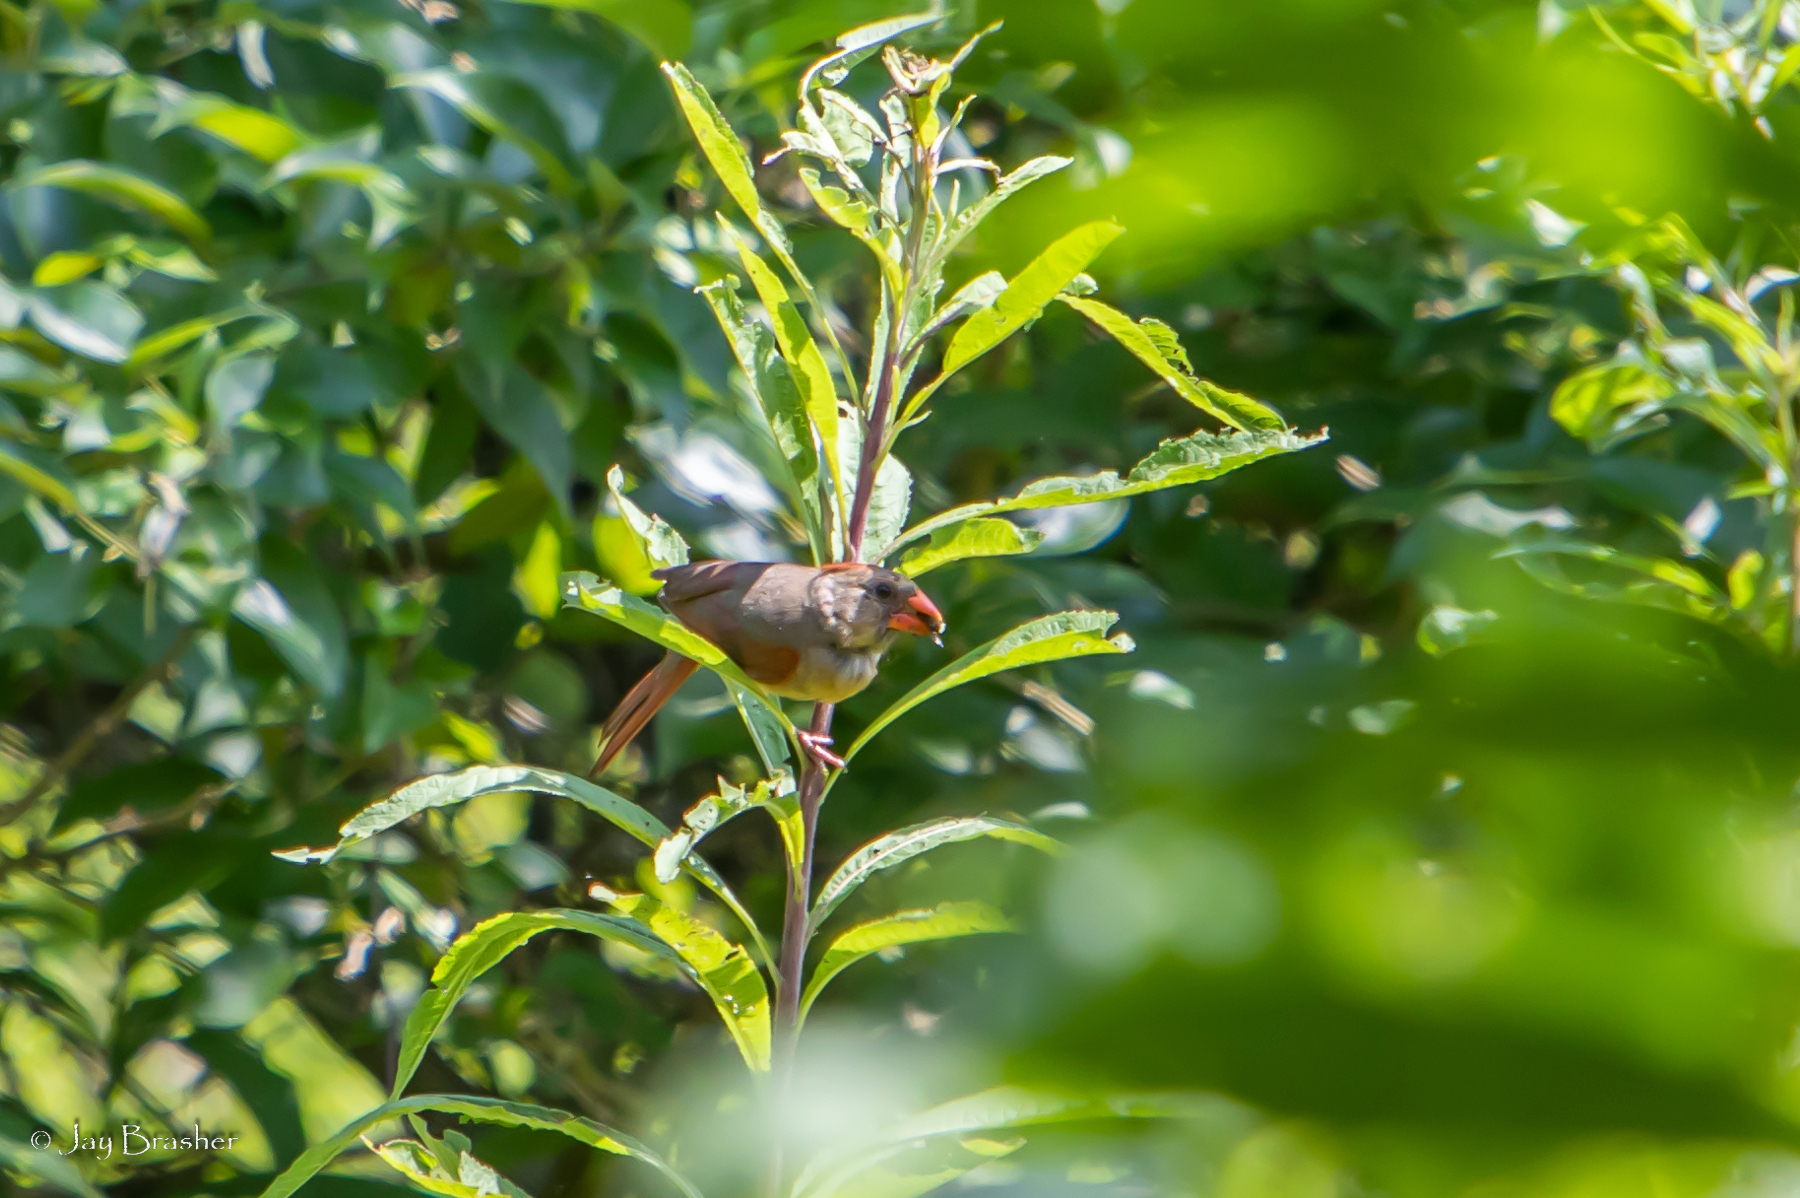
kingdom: Animalia
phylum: Chordata
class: Aves
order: Passeriformes
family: Cardinalidae
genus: Cardinalis
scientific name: Cardinalis cardinalis
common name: Northern cardinal
